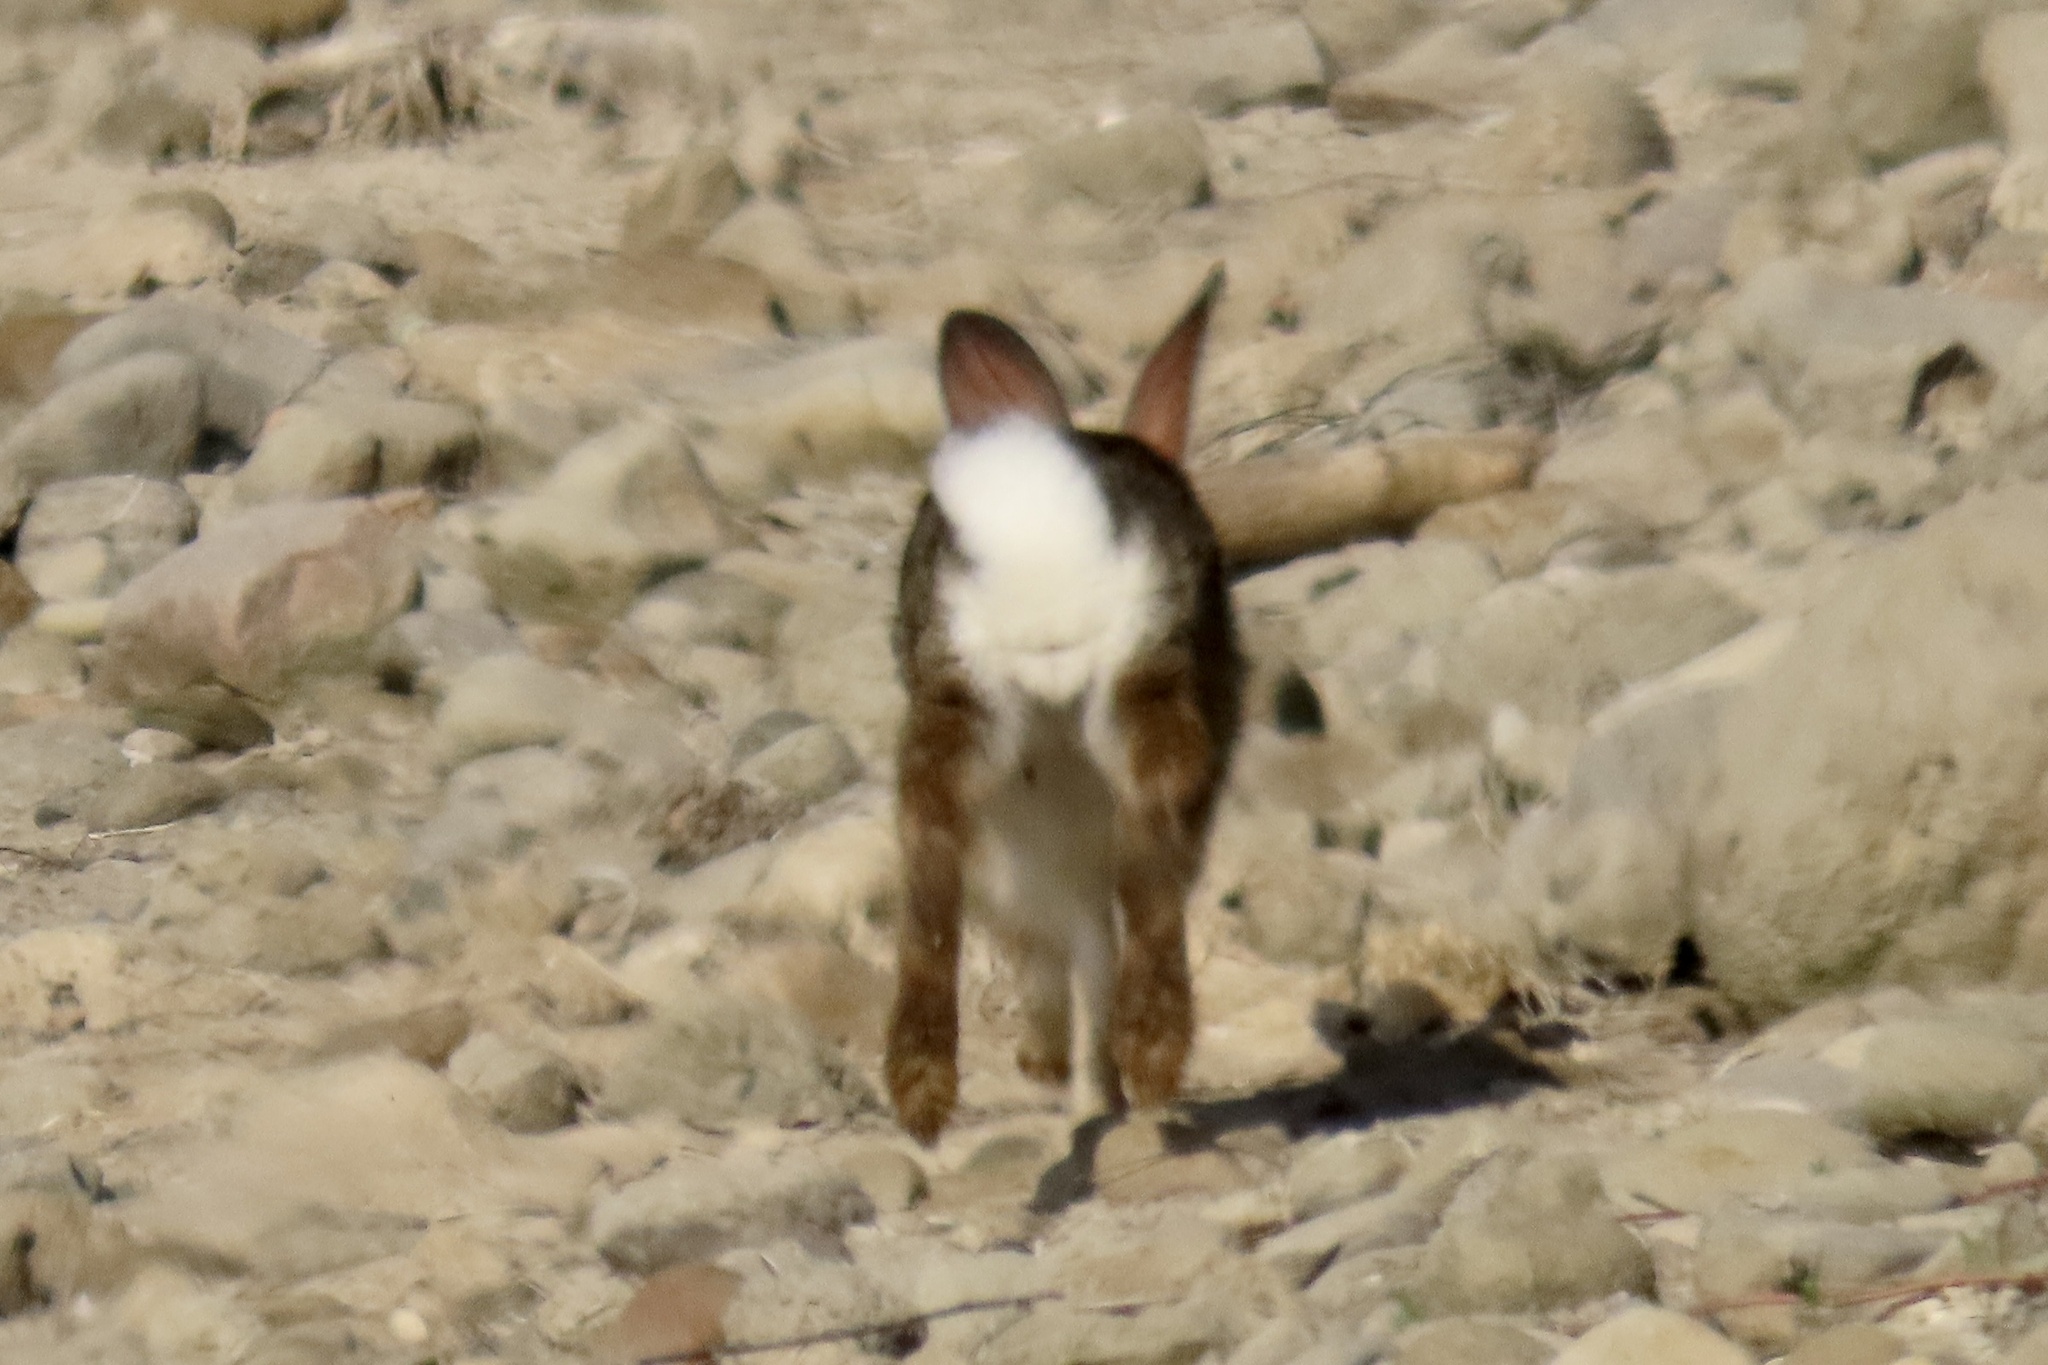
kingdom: Animalia
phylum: Chordata
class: Mammalia
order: Lagomorpha
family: Leporidae
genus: Sylvilagus
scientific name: Sylvilagus audubonii
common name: Desert cottontail
